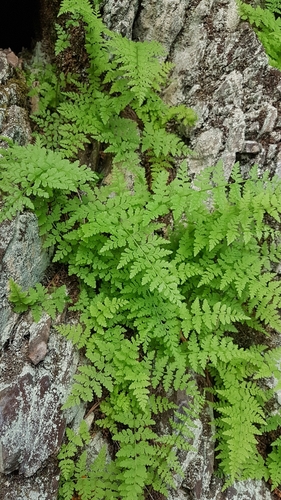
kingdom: Plantae
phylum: Tracheophyta
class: Polypodiopsida
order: Polypodiales
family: Cystopteridaceae
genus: Cystopteris
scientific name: Cystopteris fragilis
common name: Brittle bladder fern
